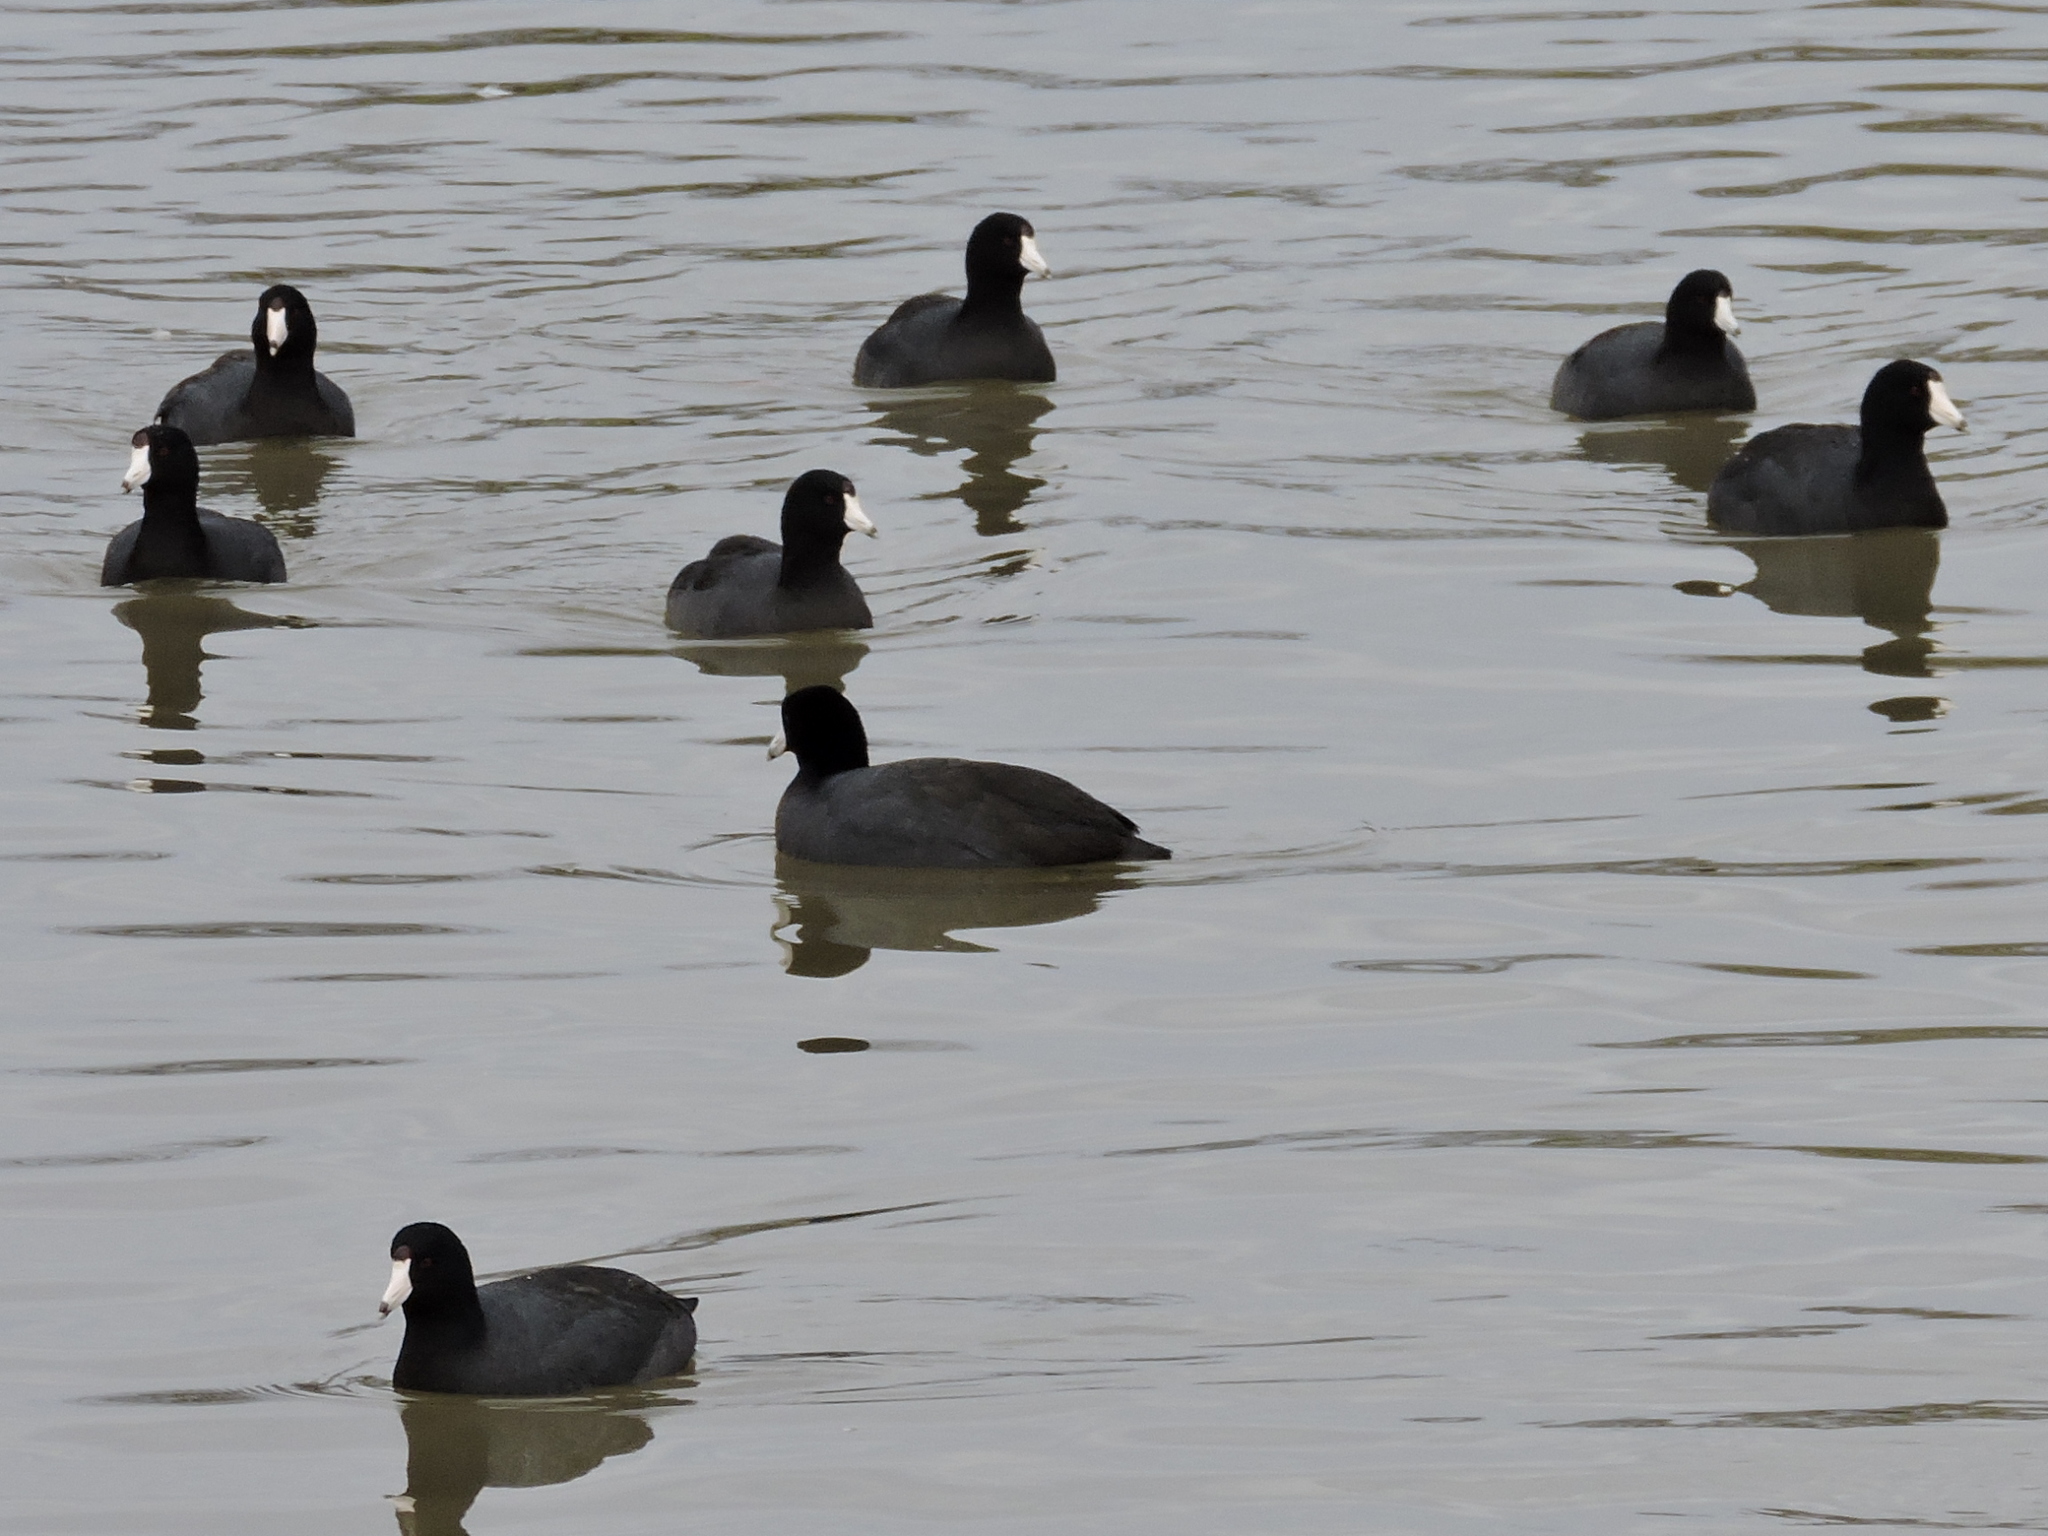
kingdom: Animalia
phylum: Chordata
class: Aves
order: Gruiformes
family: Rallidae
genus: Fulica
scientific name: Fulica americana
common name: American coot
